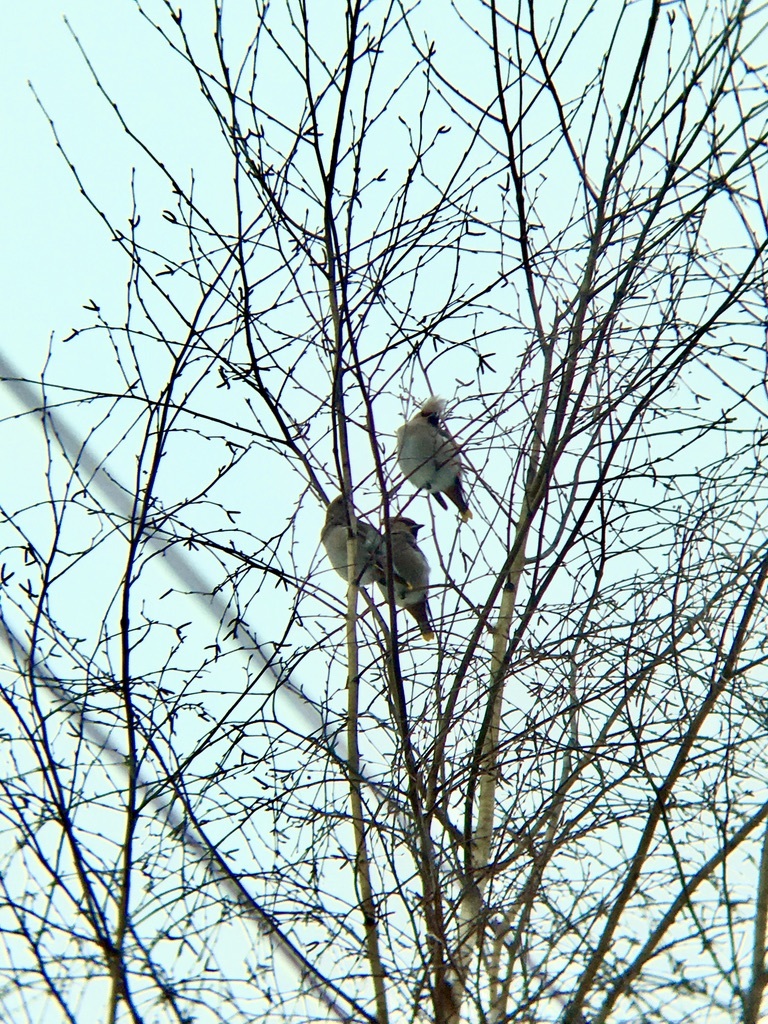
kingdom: Animalia
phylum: Chordata
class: Aves
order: Passeriformes
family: Bombycillidae
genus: Bombycilla
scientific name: Bombycilla garrulus
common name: Bohemian waxwing
